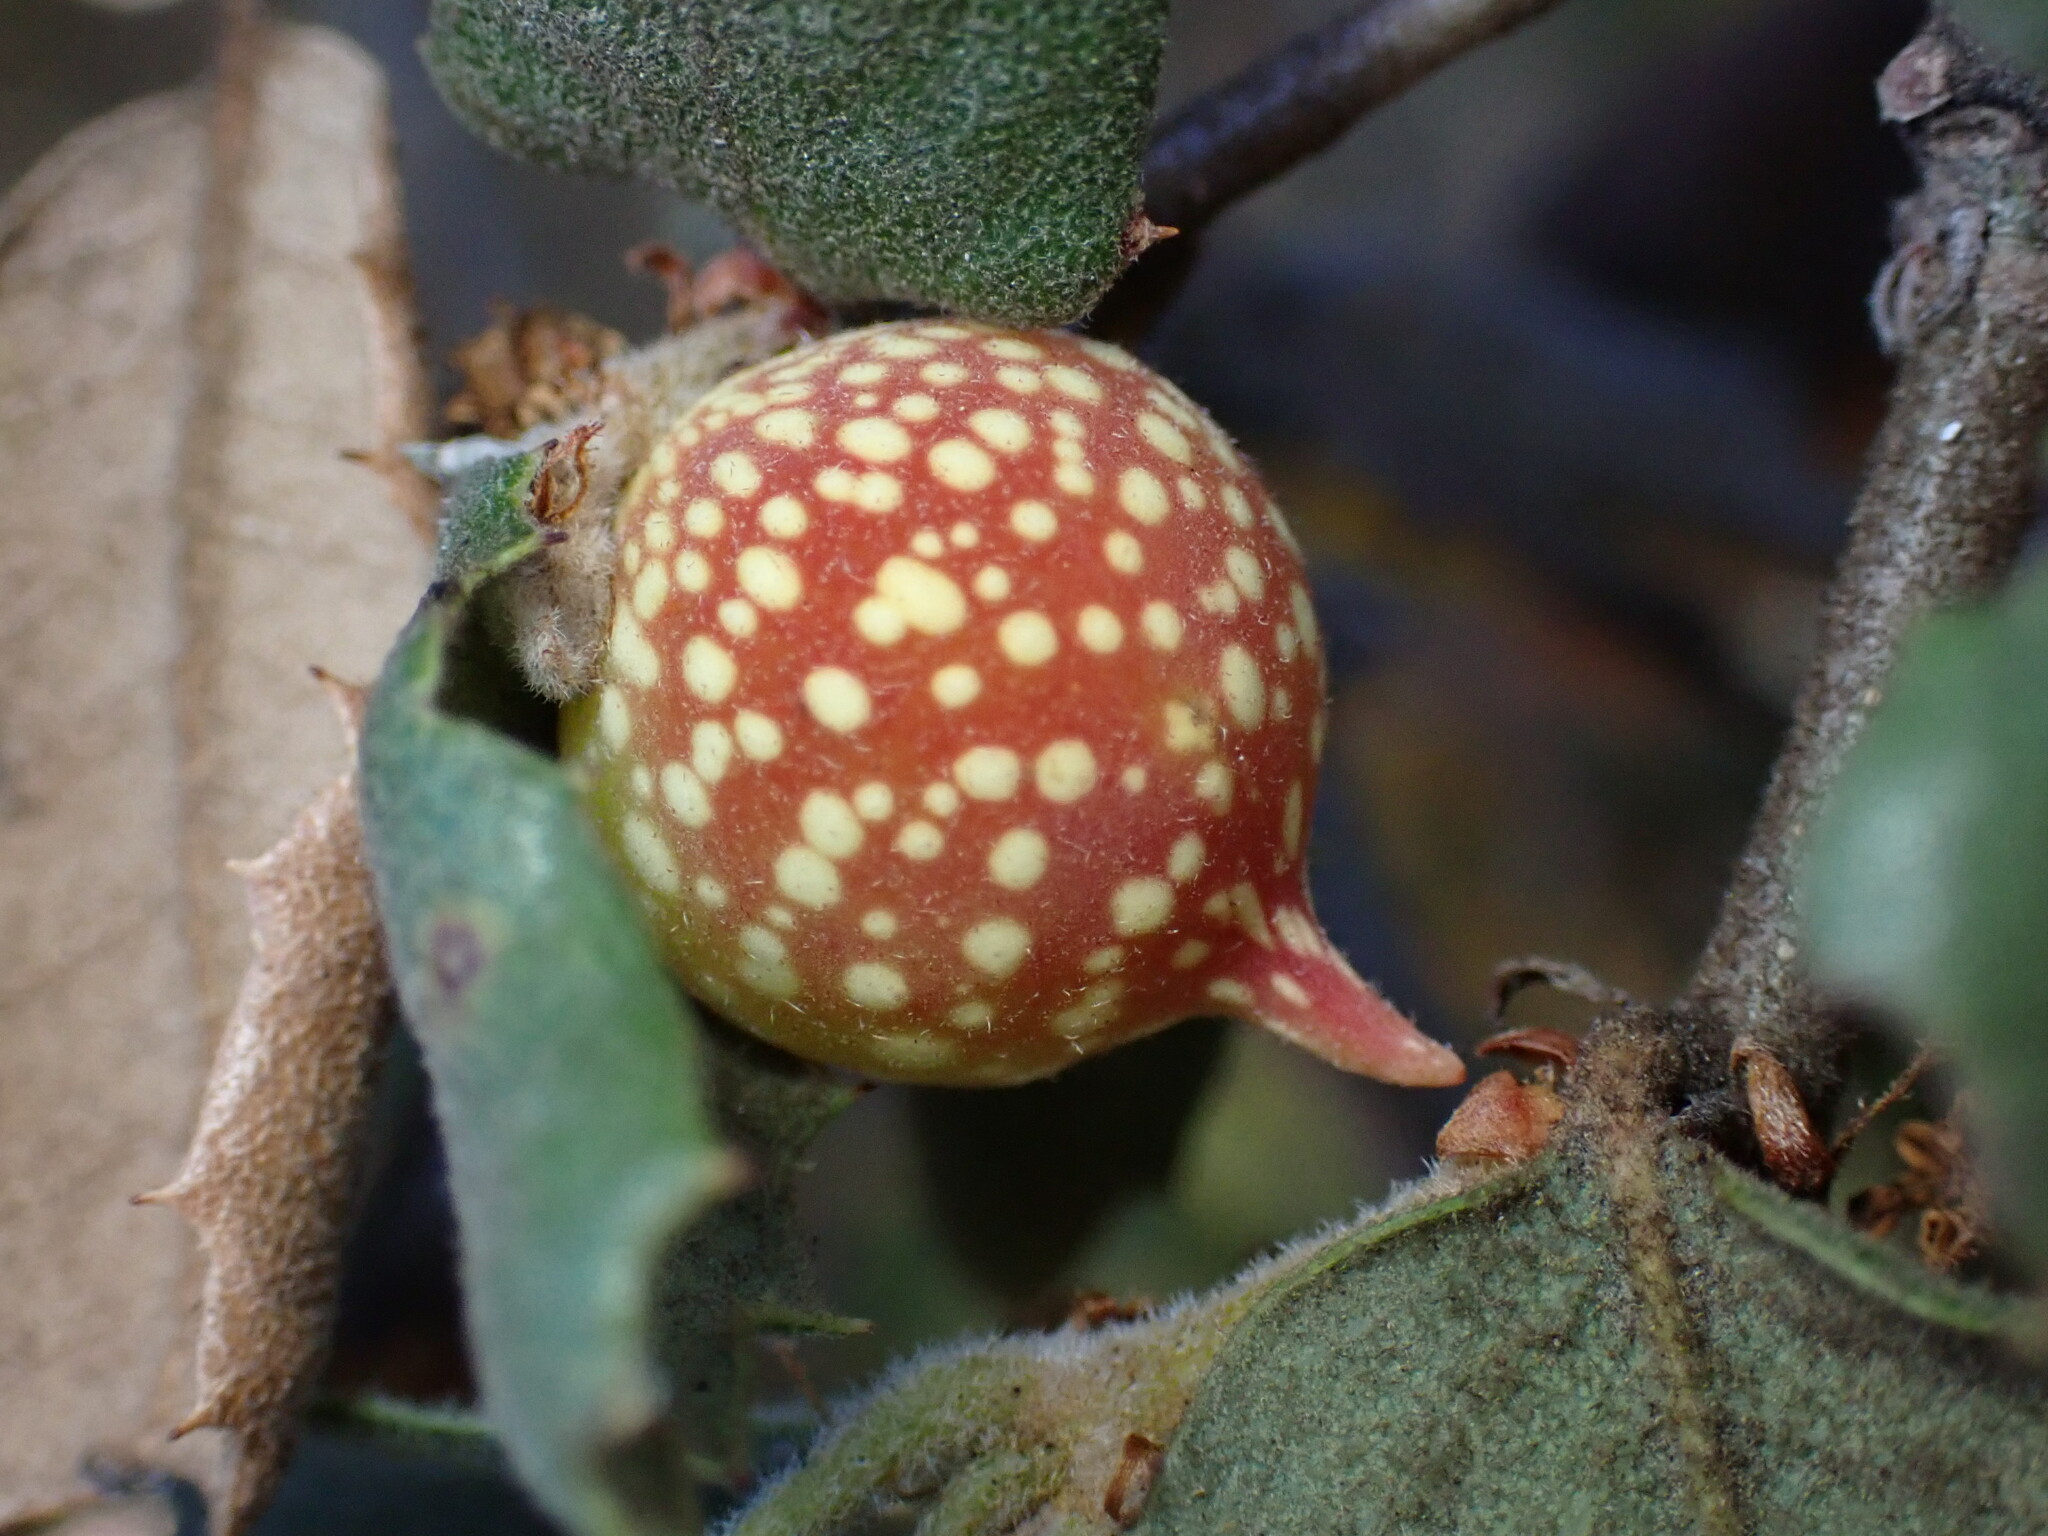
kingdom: Animalia
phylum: Arthropoda
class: Insecta
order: Hymenoptera
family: Cynipidae
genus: Burnettweldia
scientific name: Burnettweldia
